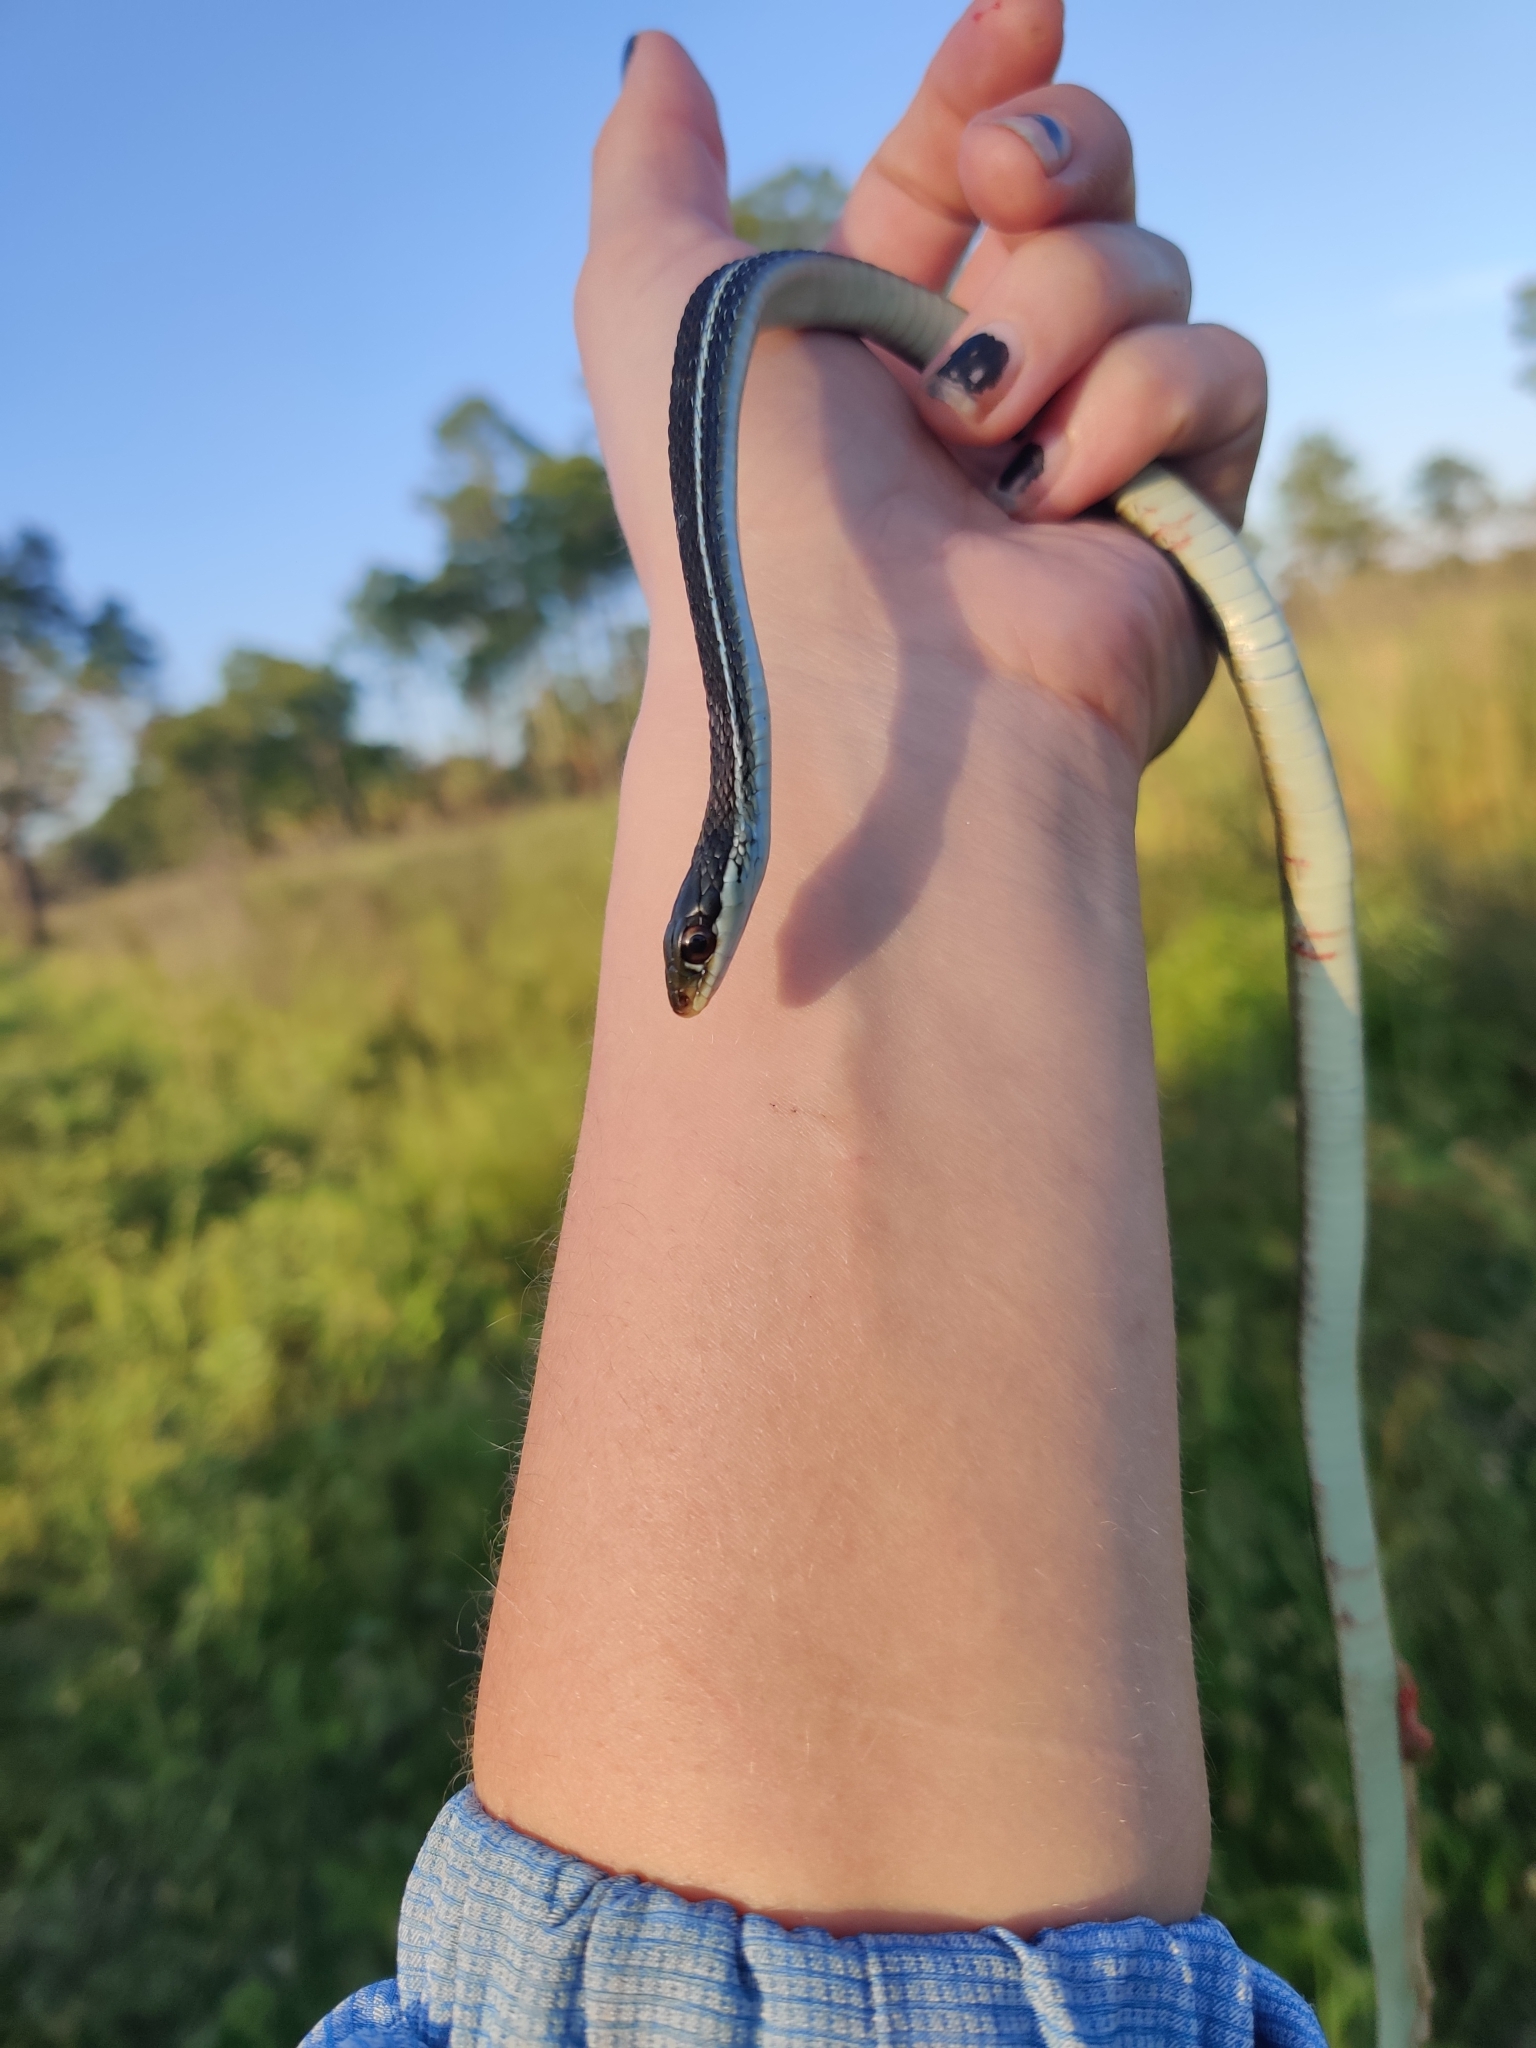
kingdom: Animalia
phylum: Chordata
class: Squamata
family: Colubridae
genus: Thamnophis
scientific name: Thamnophis saurita
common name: Eastern ribbonsnake
